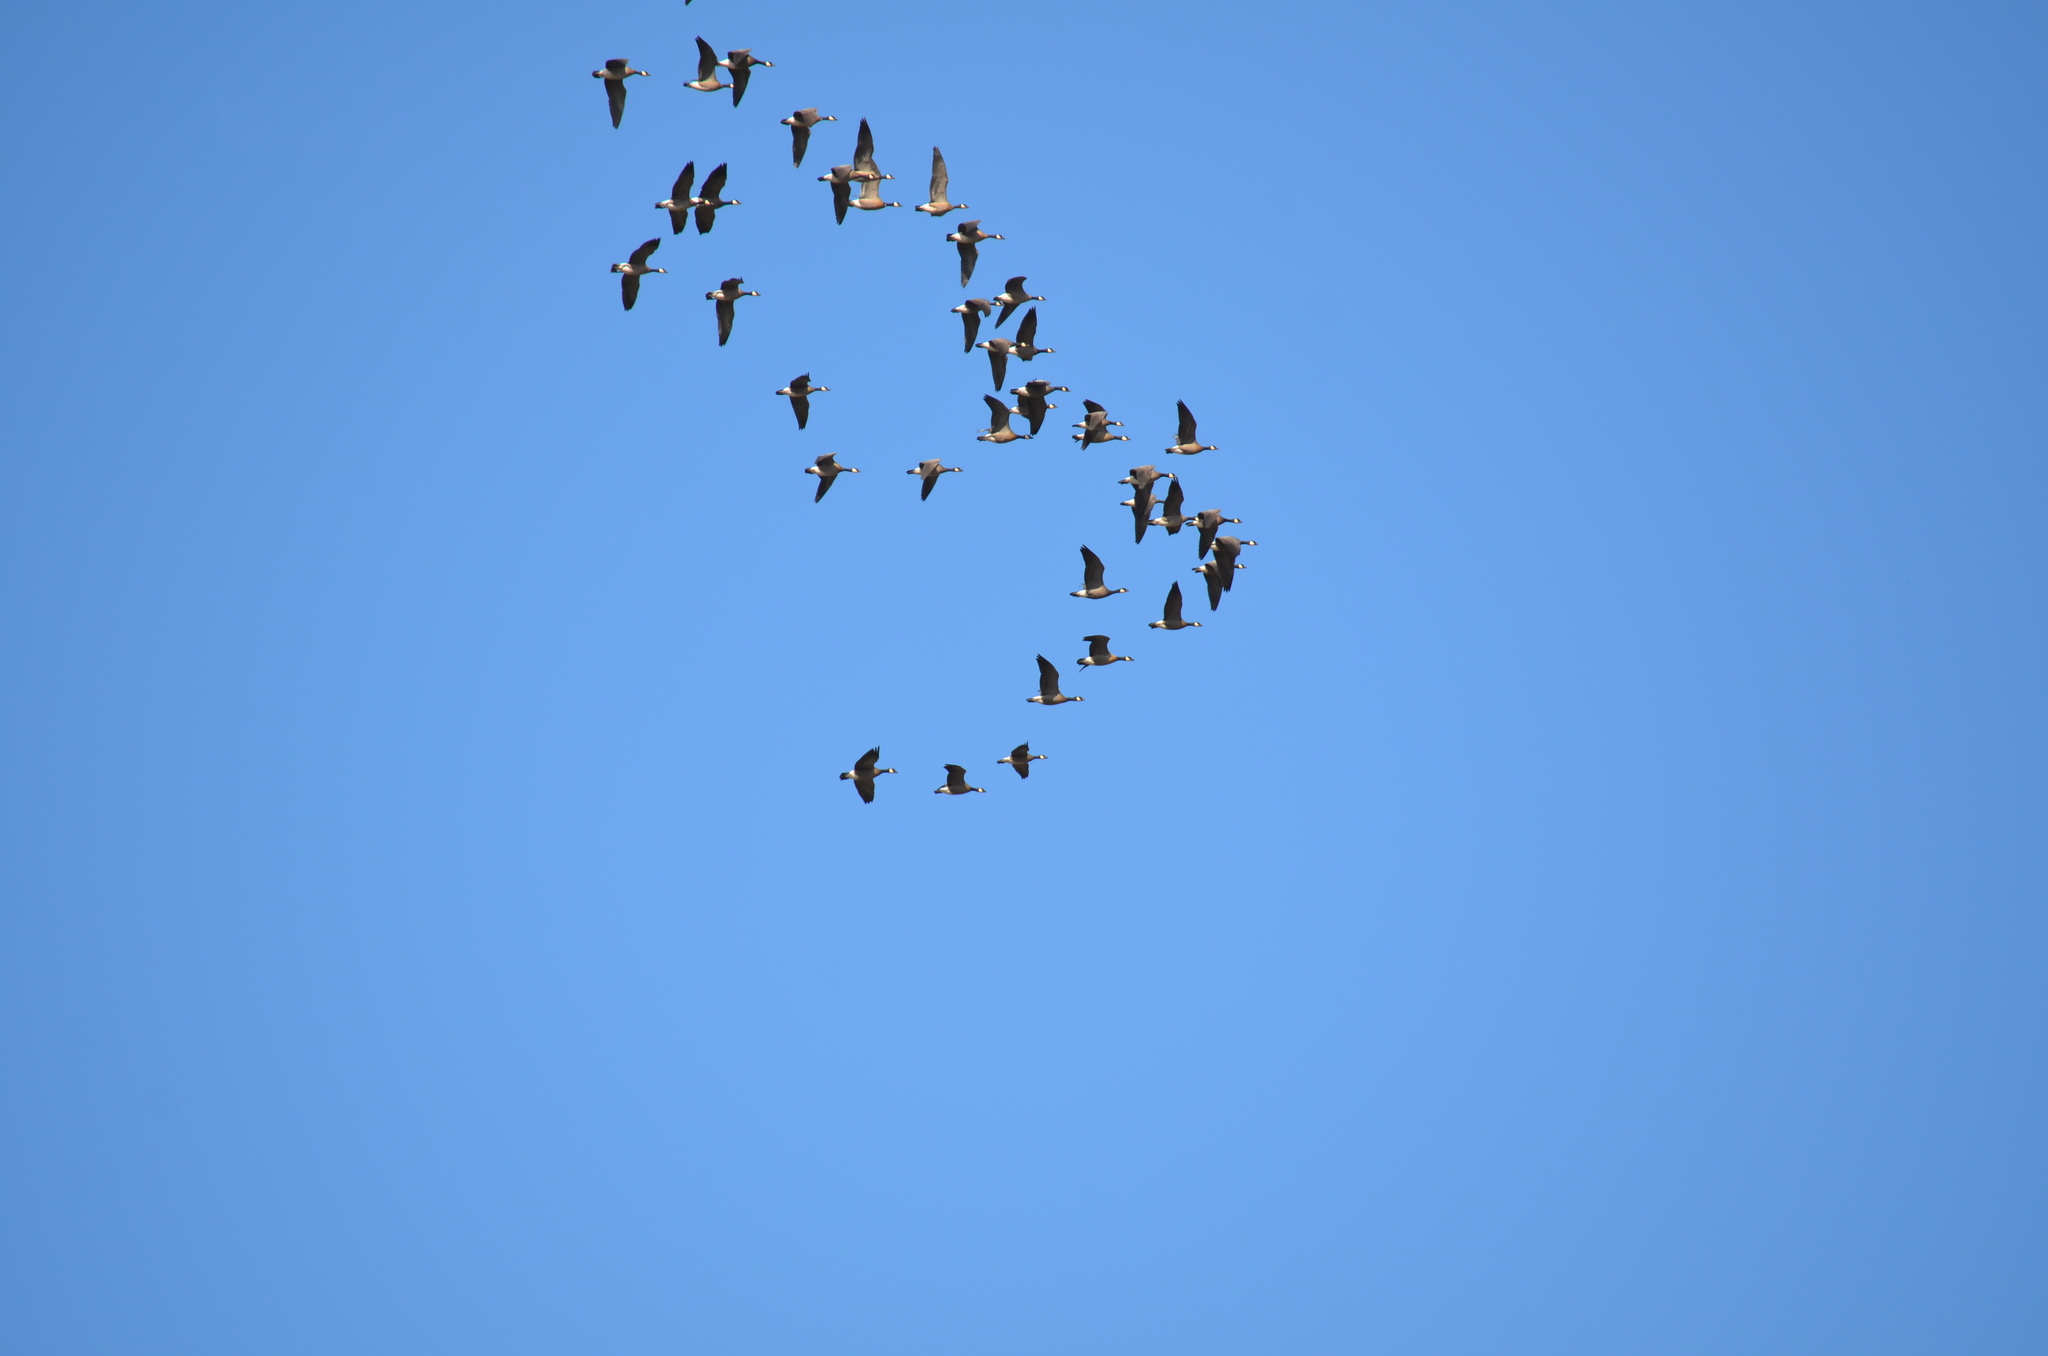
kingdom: Animalia
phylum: Chordata
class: Aves
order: Anseriformes
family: Anatidae
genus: Branta
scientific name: Branta hutchinsii
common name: Cackling goose
